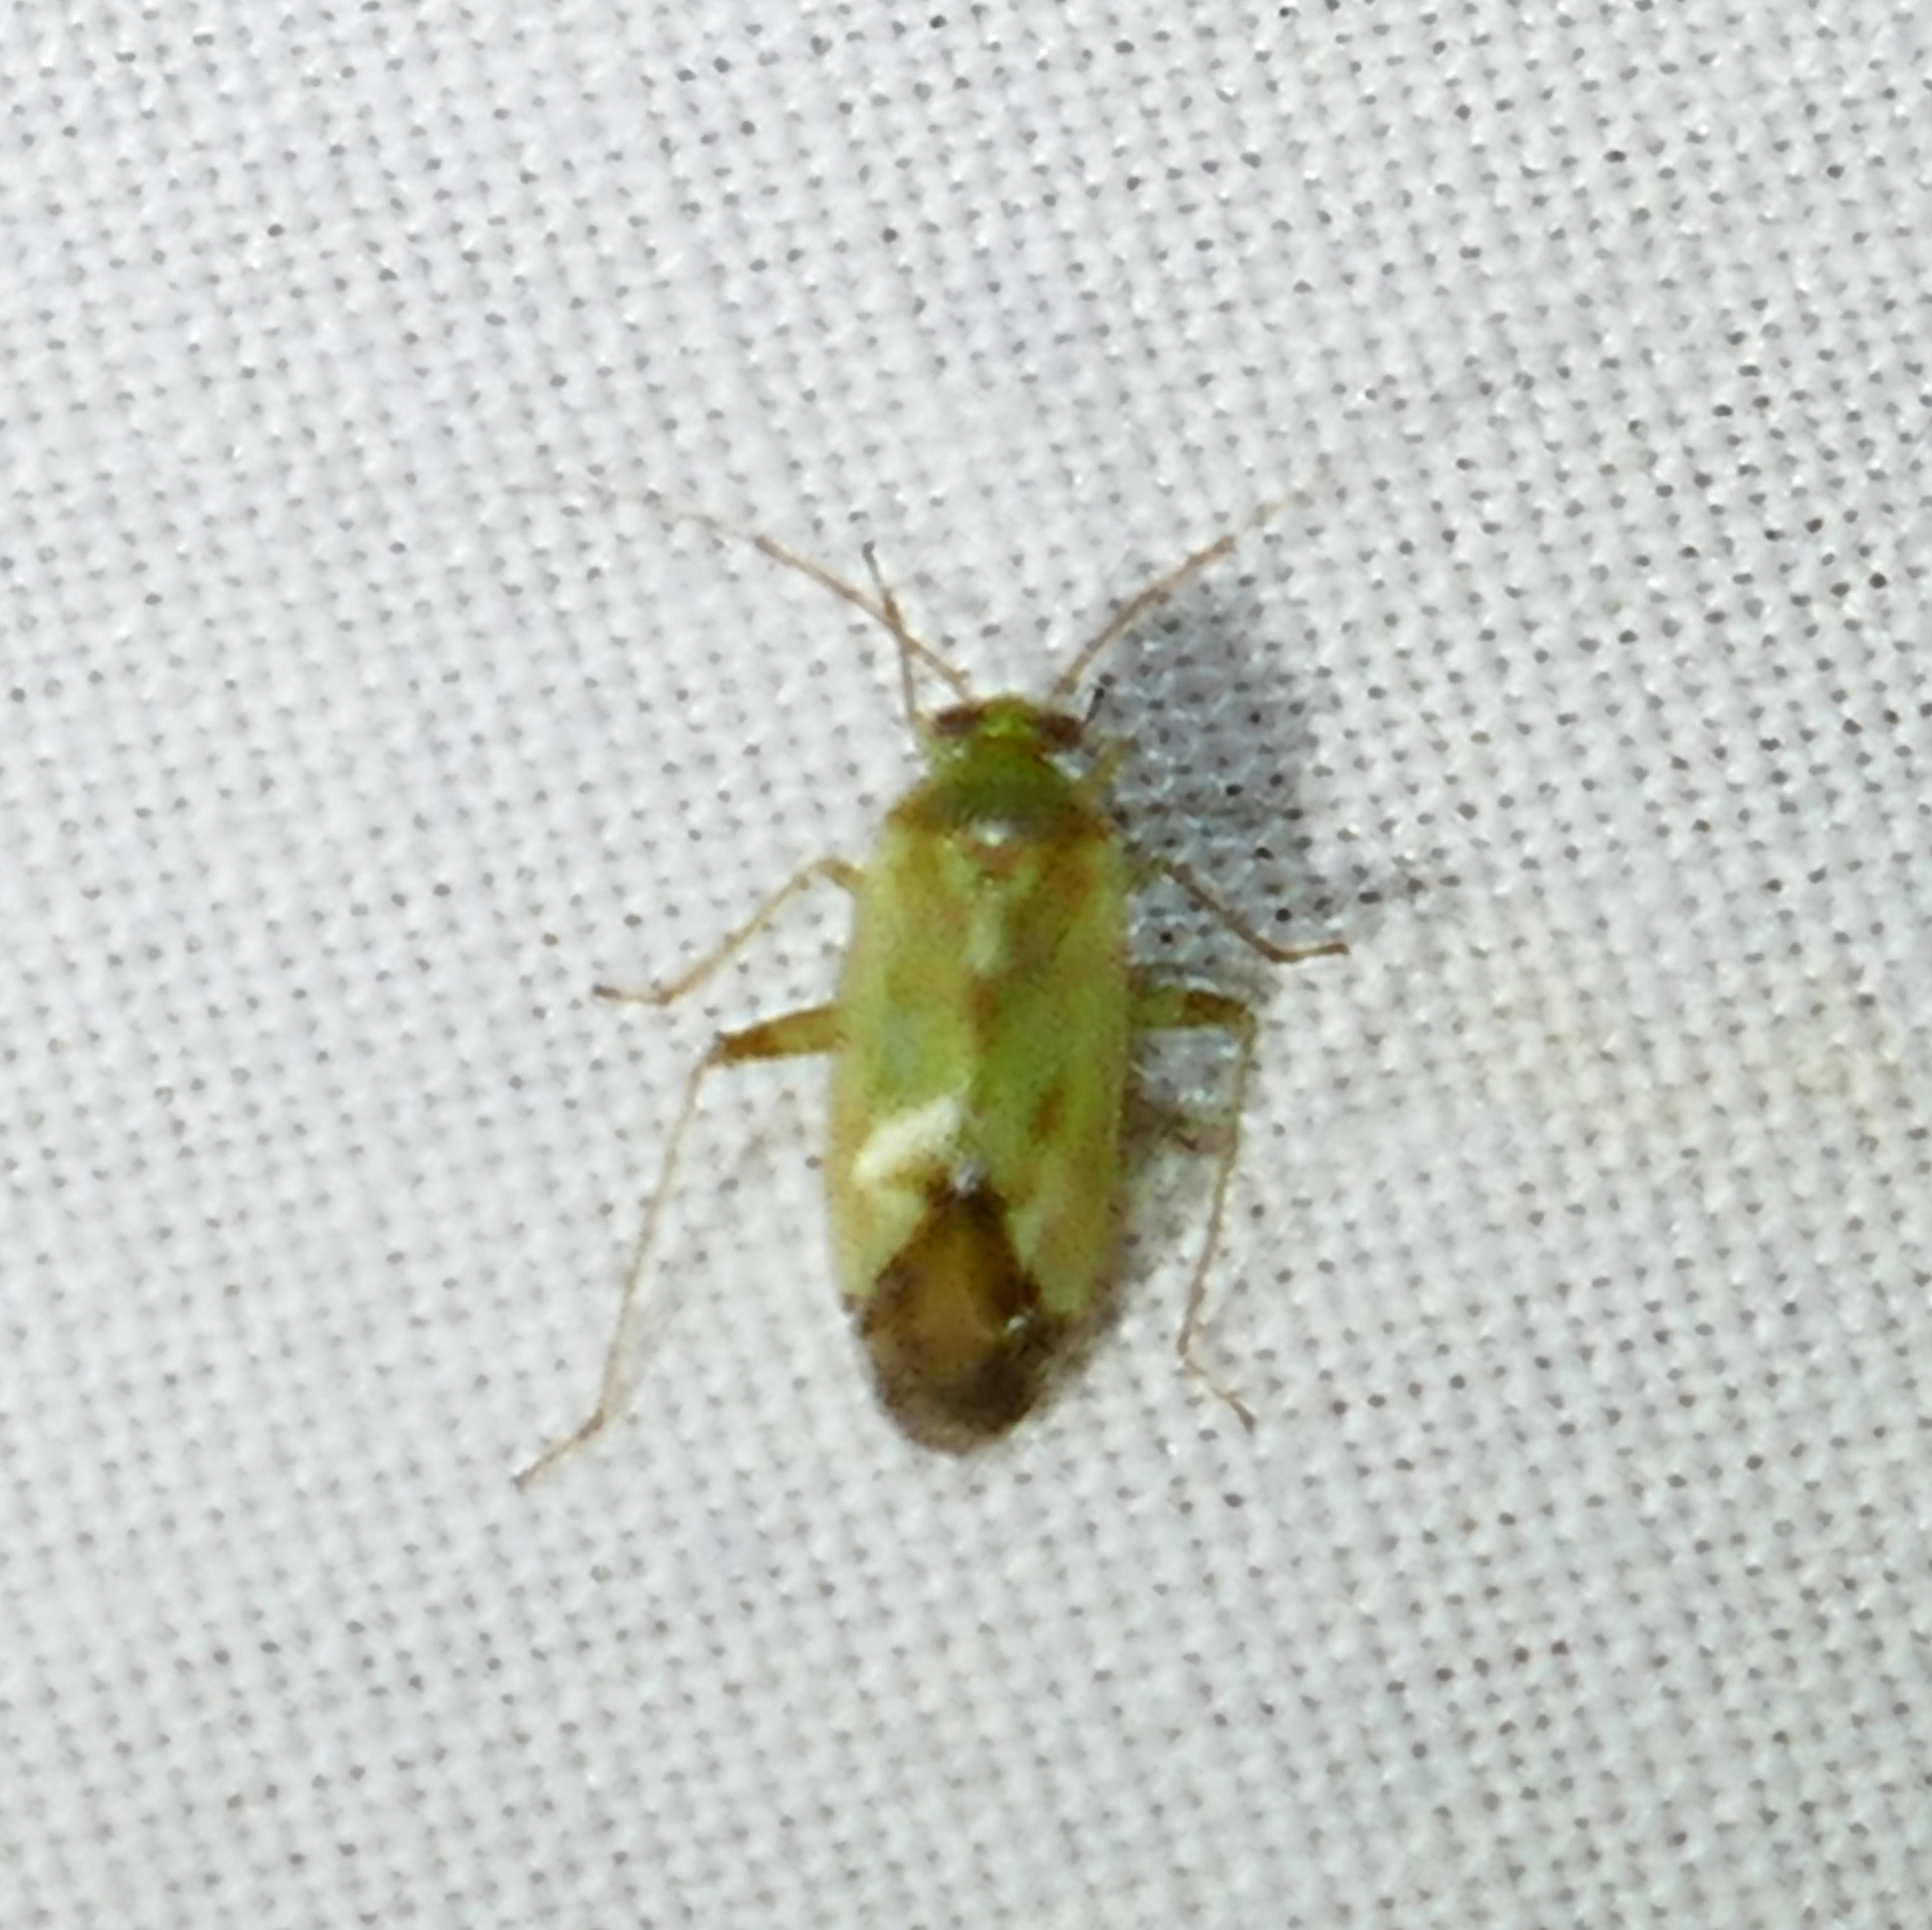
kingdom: Animalia
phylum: Arthropoda
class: Insecta
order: Hemiptera
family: Miridae
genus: Taylorilygus
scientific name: Taylorilygus apicalis
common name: Plant bug
